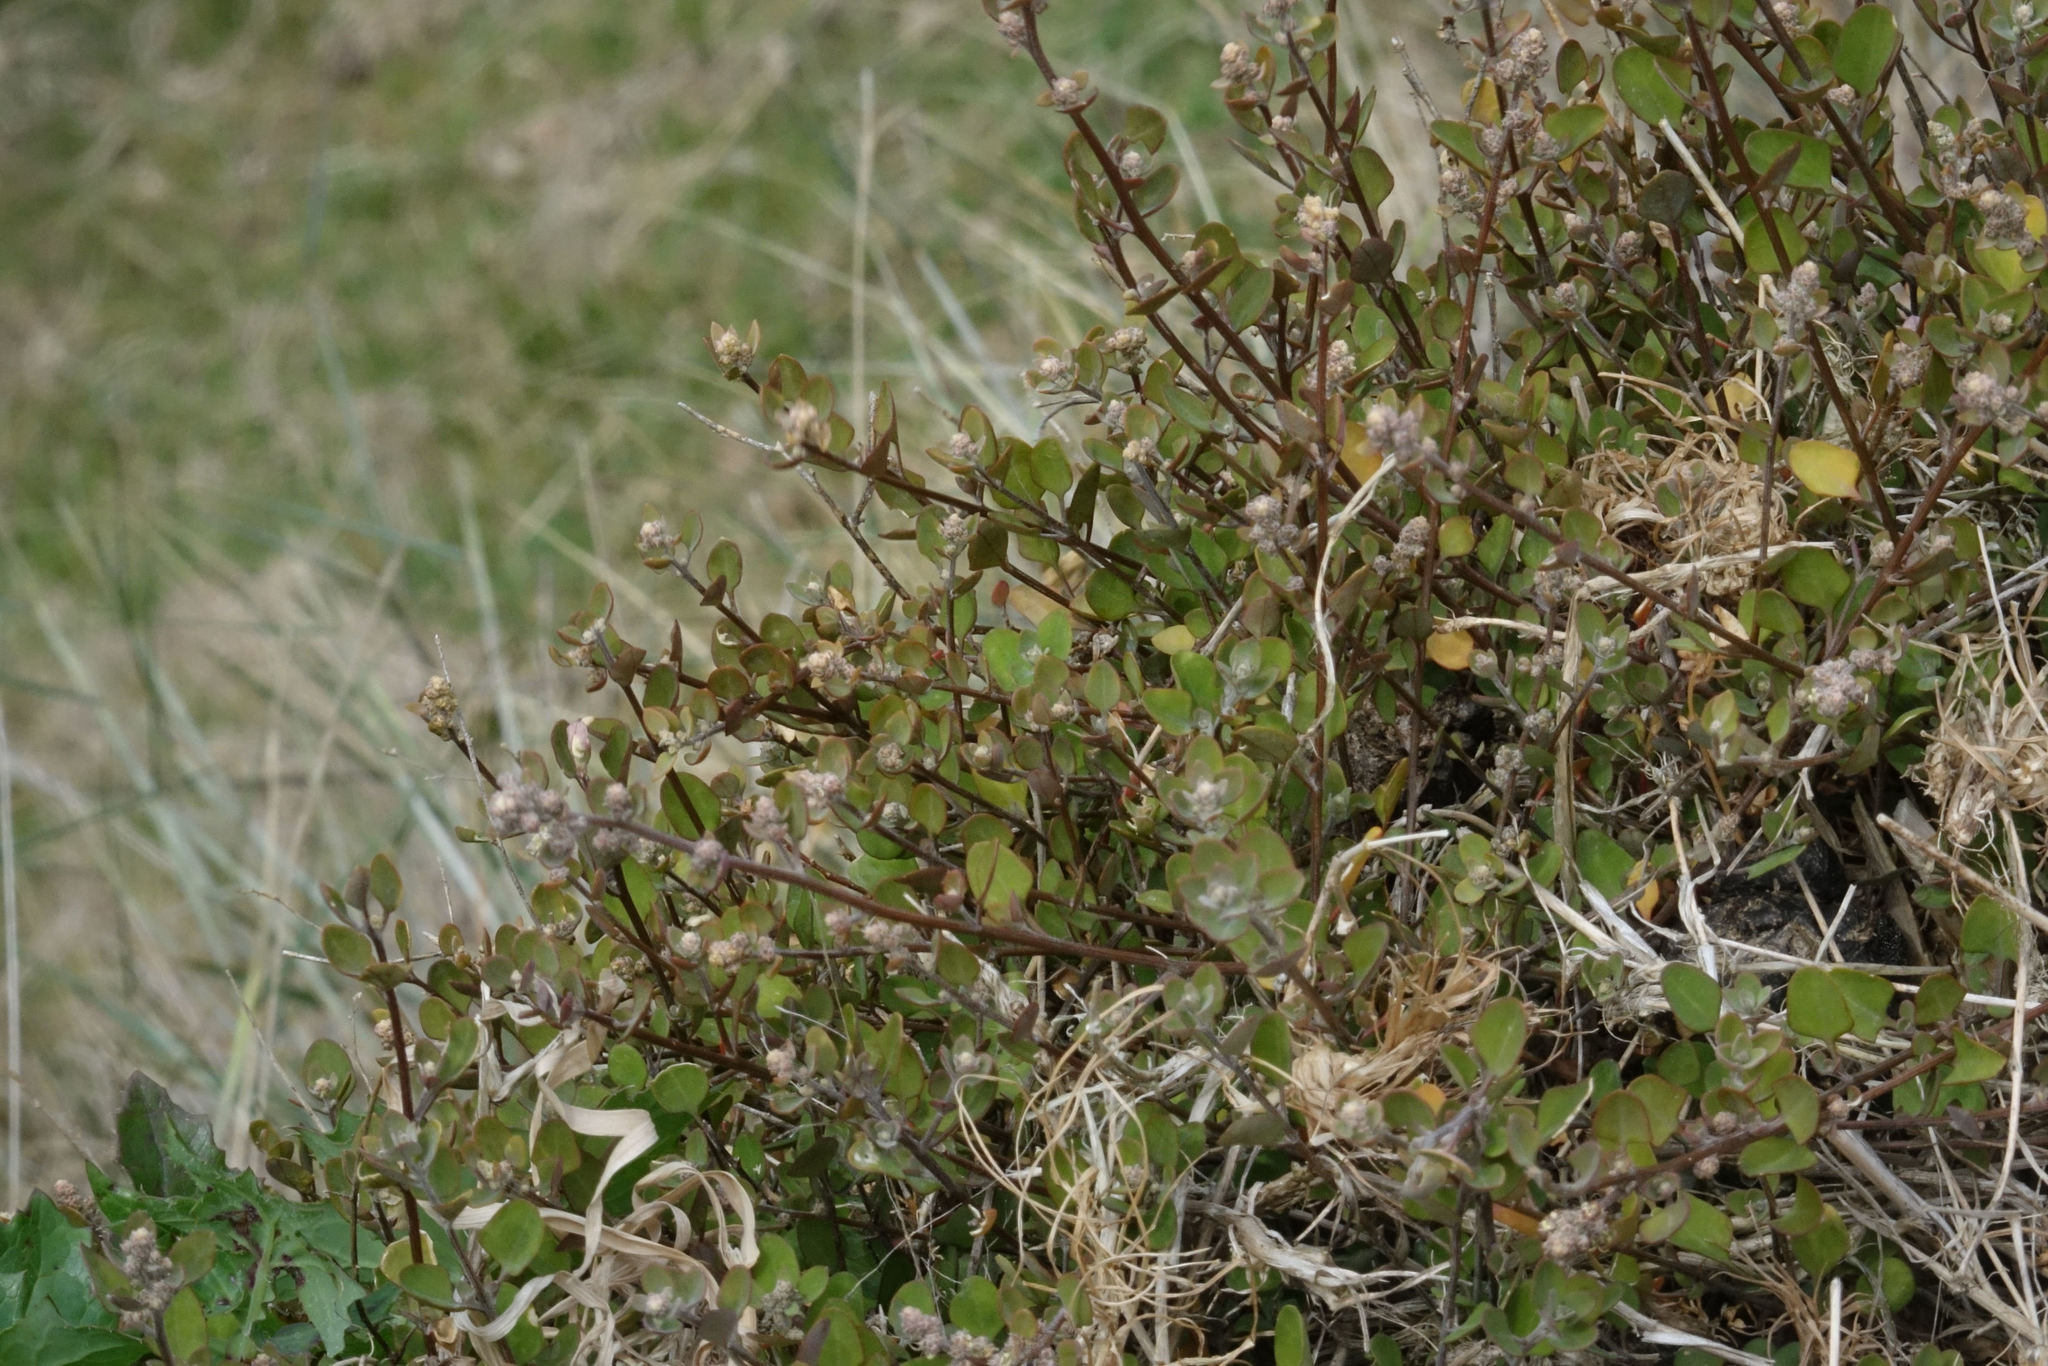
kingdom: Plantae
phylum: Tracheophyta
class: Magnoliopsida
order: Caryophyllales
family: Amaranthaceae
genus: Chenopodium
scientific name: Chenopodium allanii
